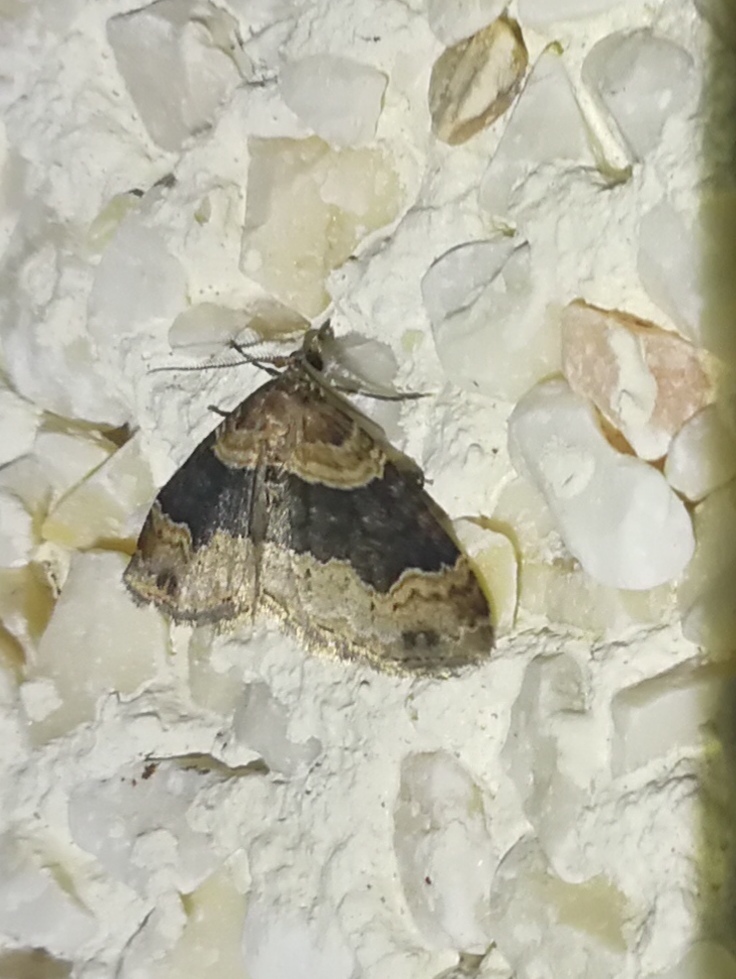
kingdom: Animalia
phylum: Arthropoda
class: Insecta
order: Lepidoptera
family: Geometridae
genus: Xanthorhoe
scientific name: Xanthorhoe ferrugata
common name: Dark-barred twin-spot carpet
